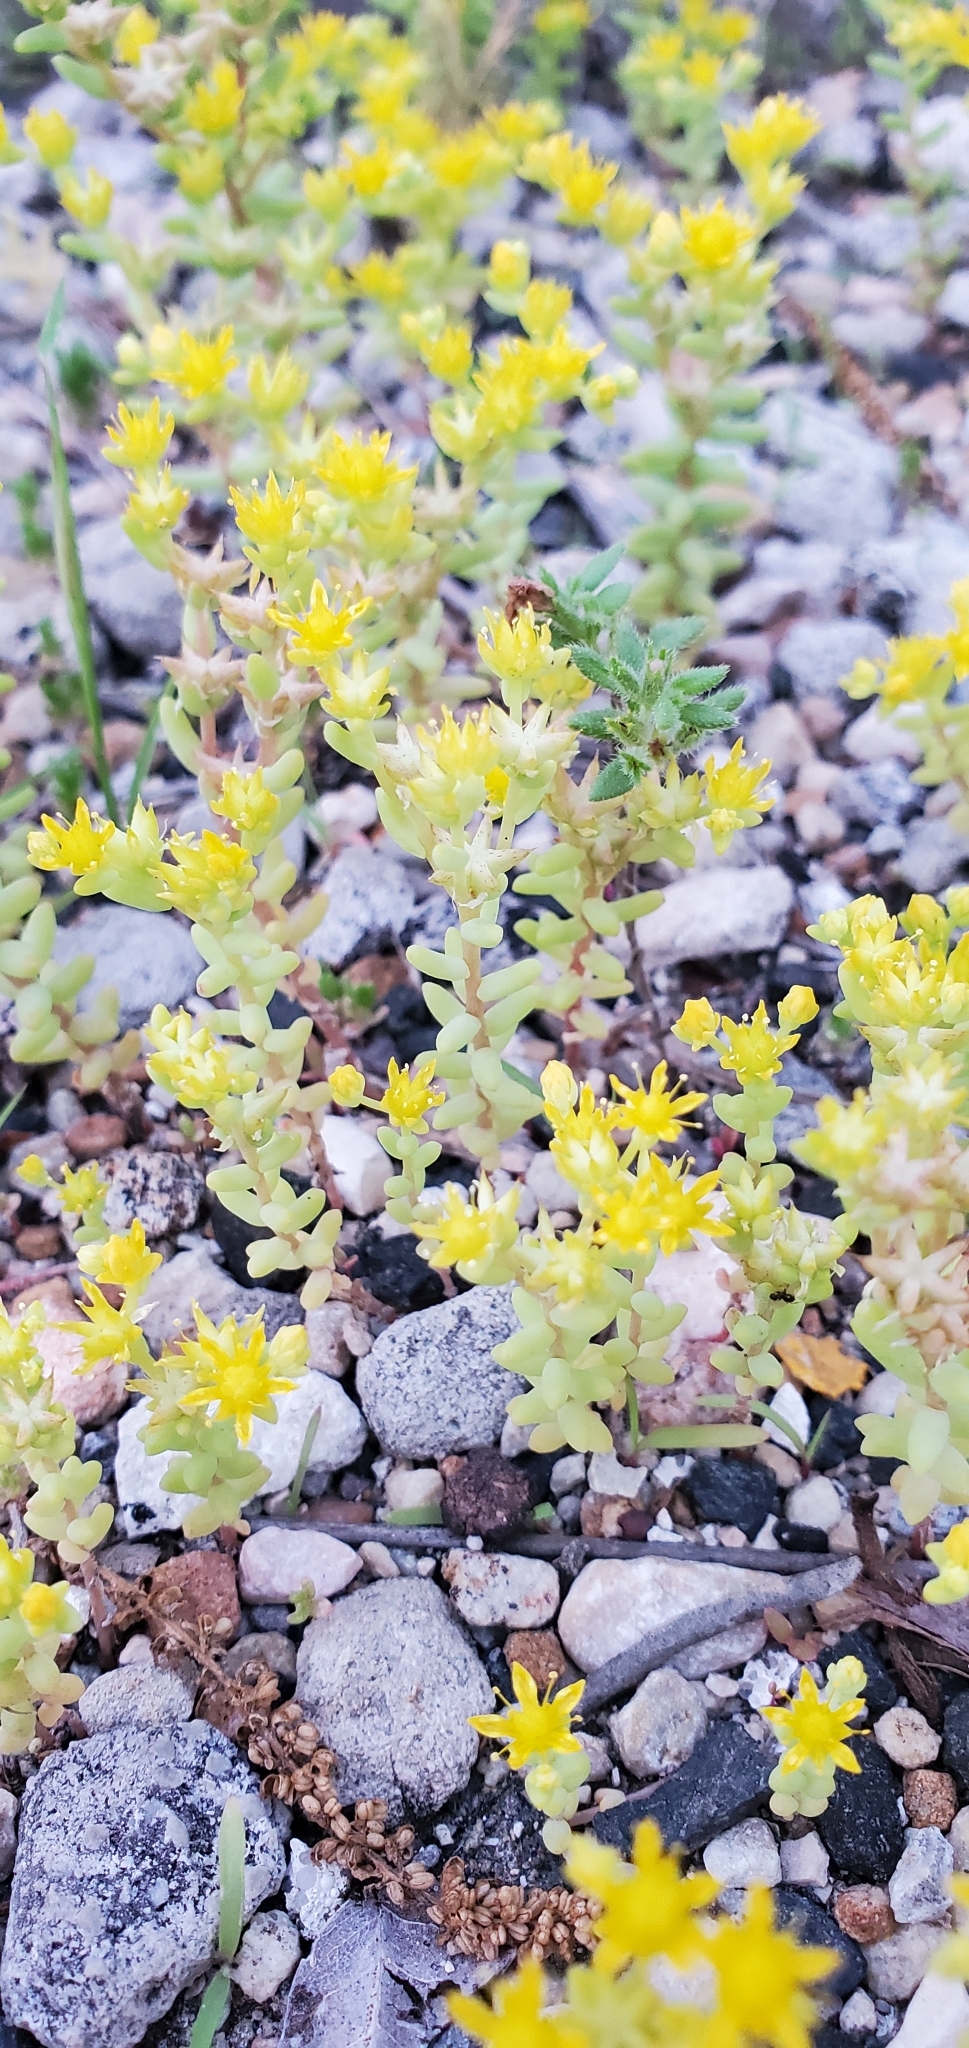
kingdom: Plantae
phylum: Tracheophyta
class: Magnoliopsida
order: Saxifragales
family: Crassulaceae
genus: Sedum
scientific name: Sedum nuttallii
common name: Yellow stonecrop
